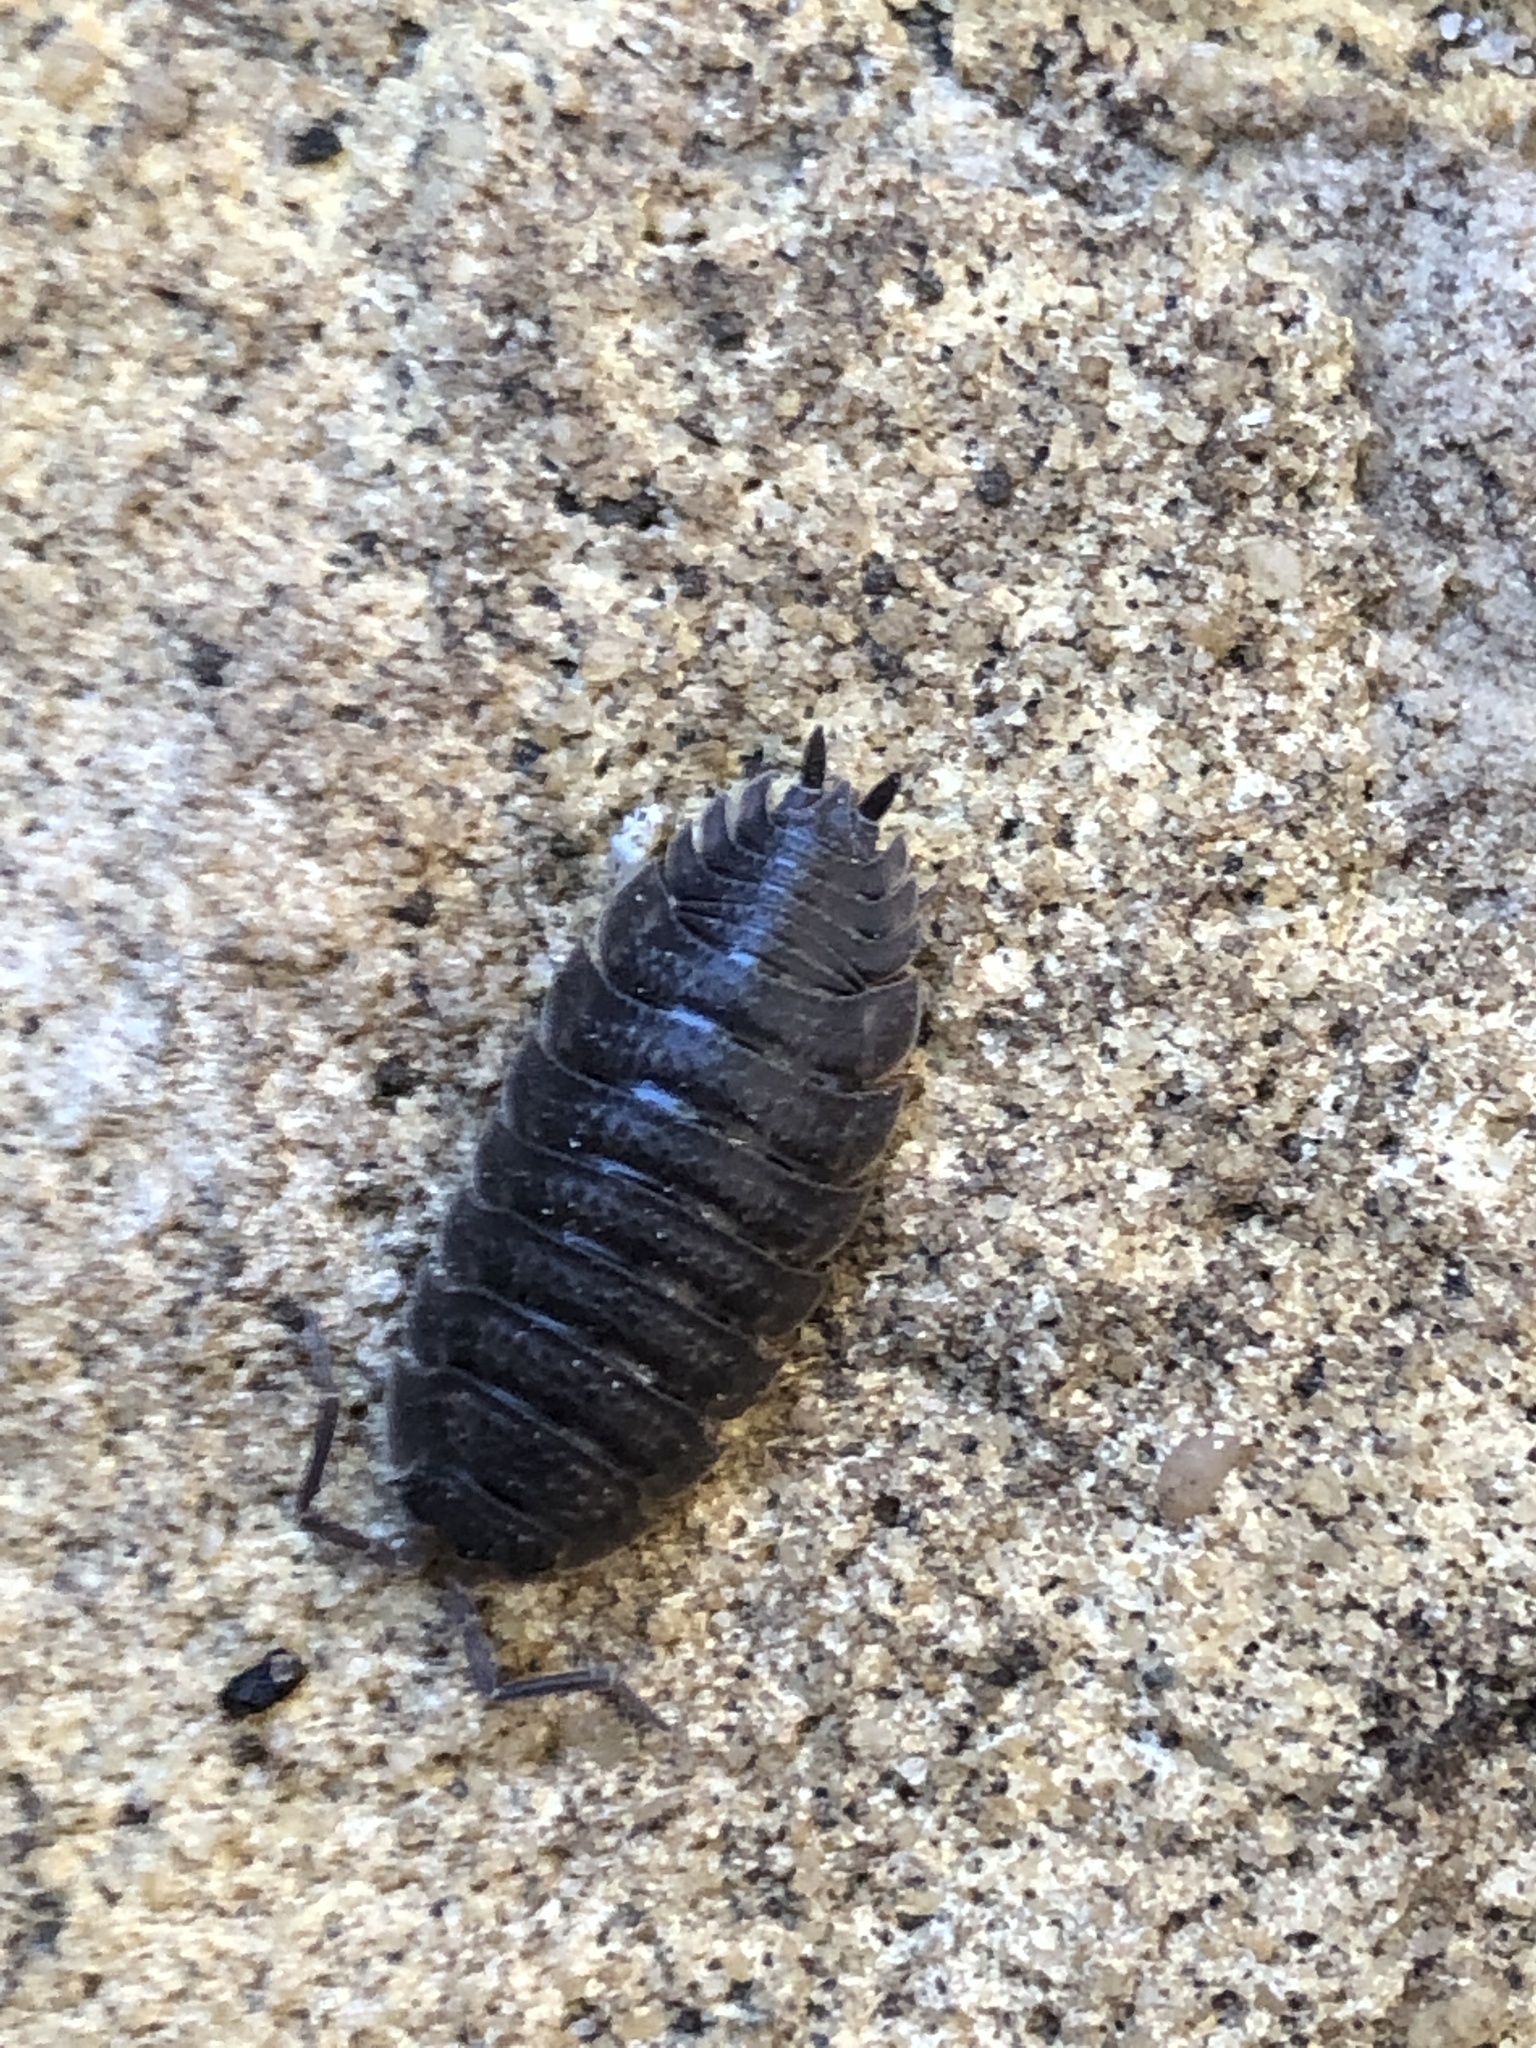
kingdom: Animalia
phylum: Arthropoda
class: Malacostraca
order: Isopoda
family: Porcellionidae
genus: Porcellio
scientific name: Porcellio scaber
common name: Common rough woodlouse
